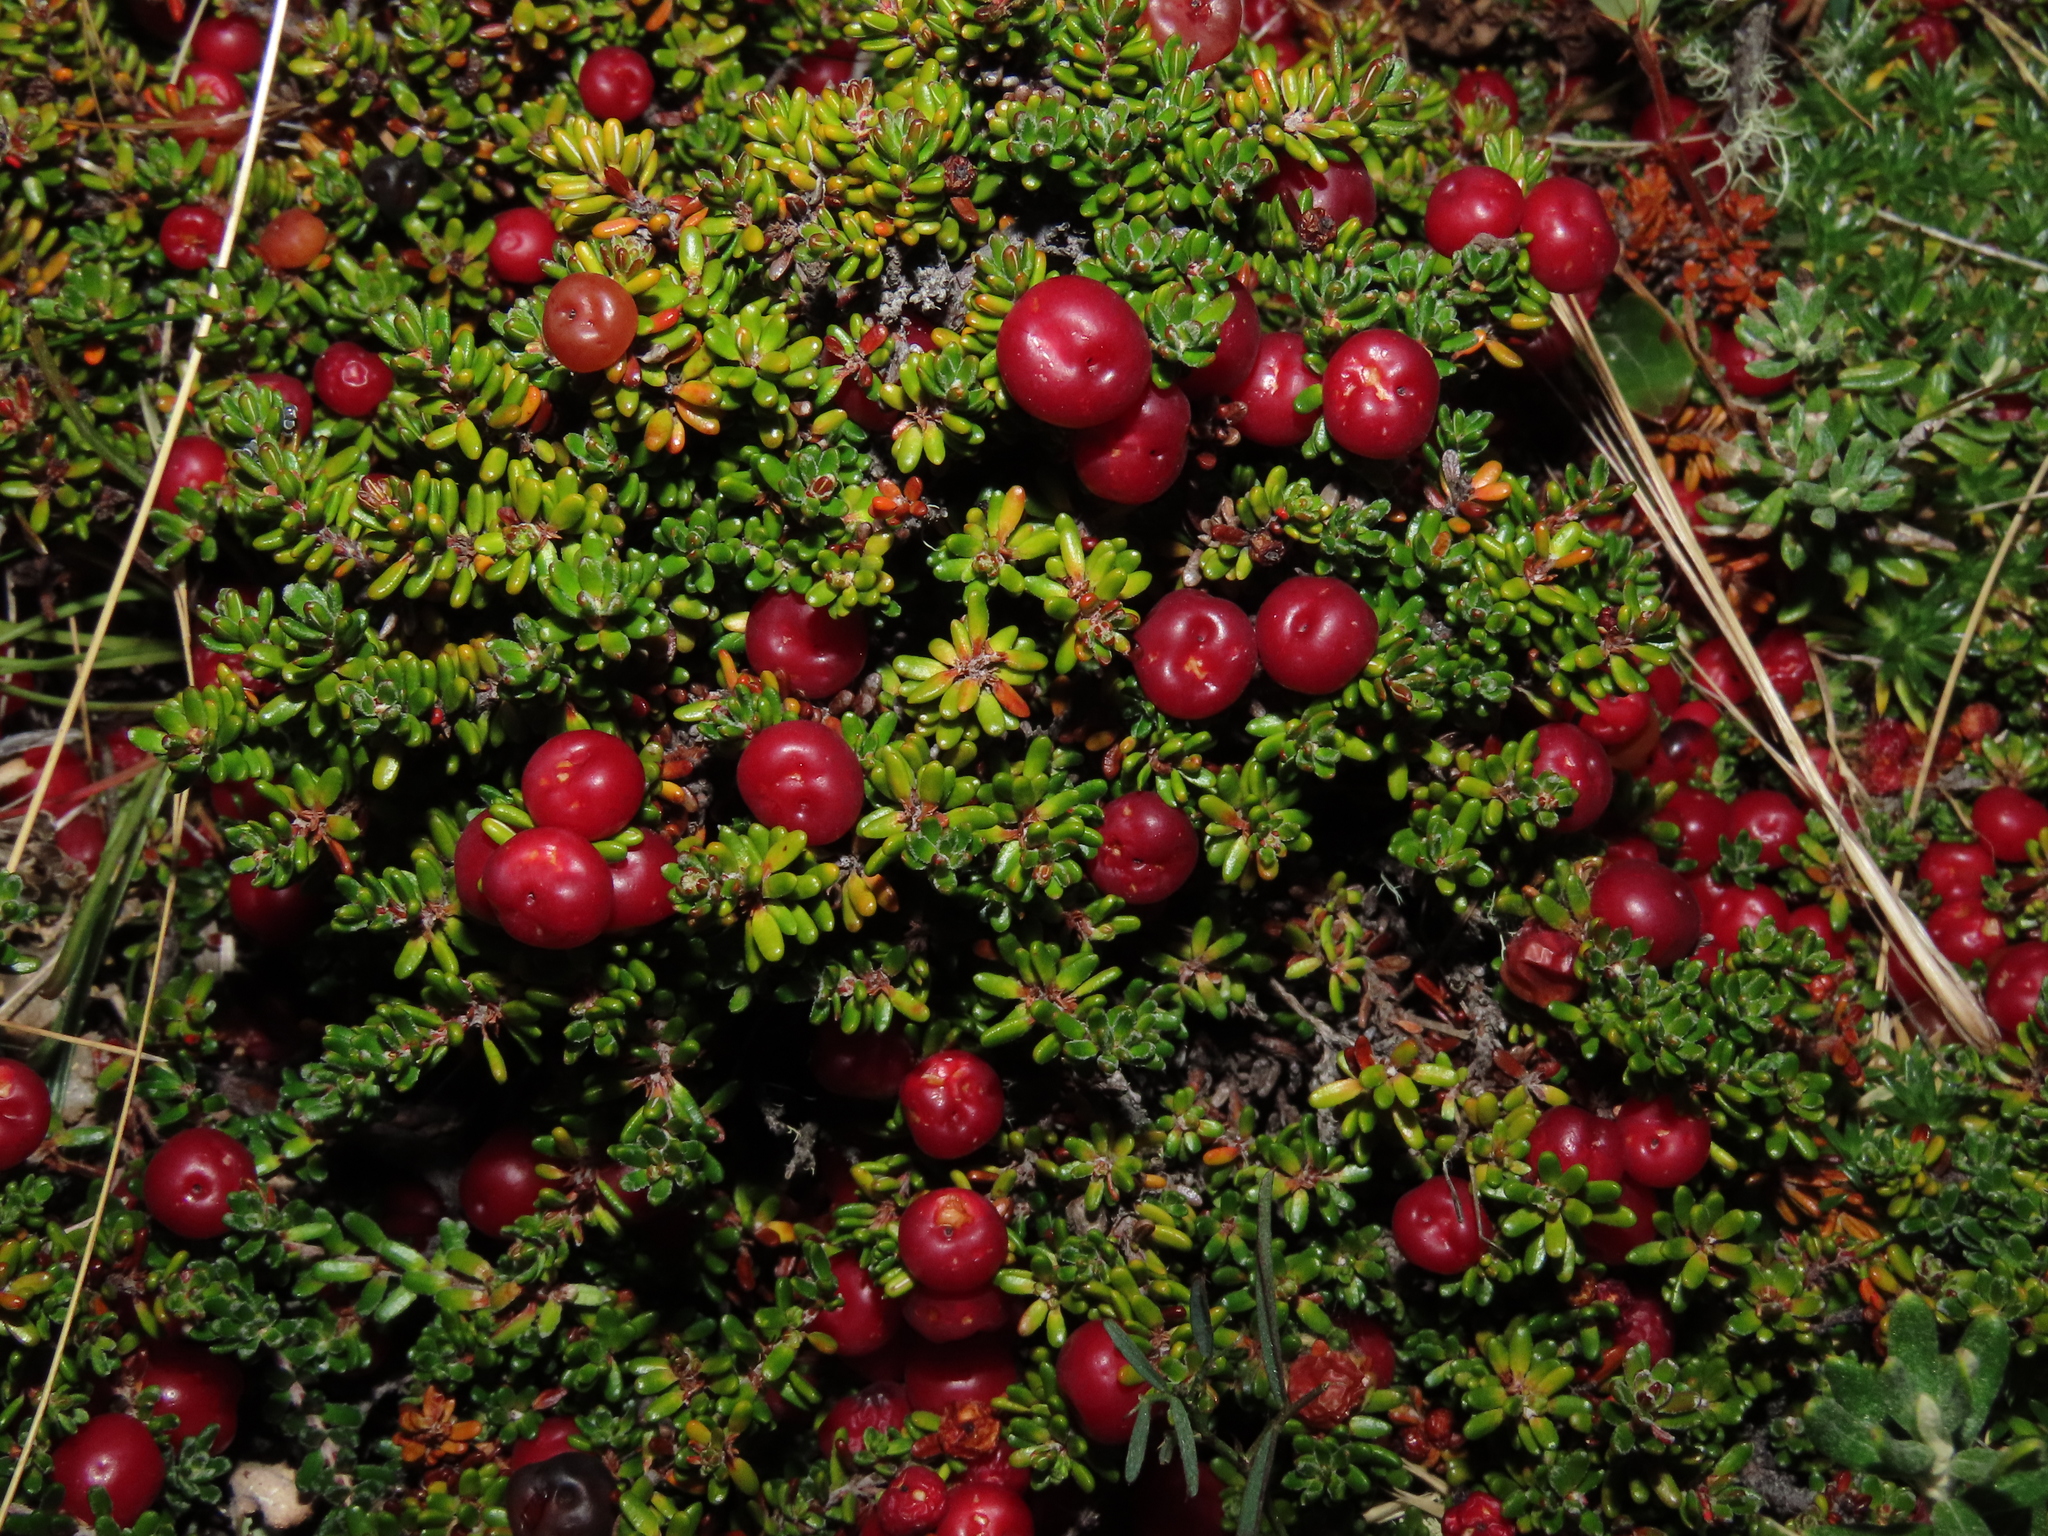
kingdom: Plantae
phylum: Tracheophyta
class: Magnoliopsida
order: Ericales
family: Ericaceae
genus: Empetrum
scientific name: Empetrum rubrum
